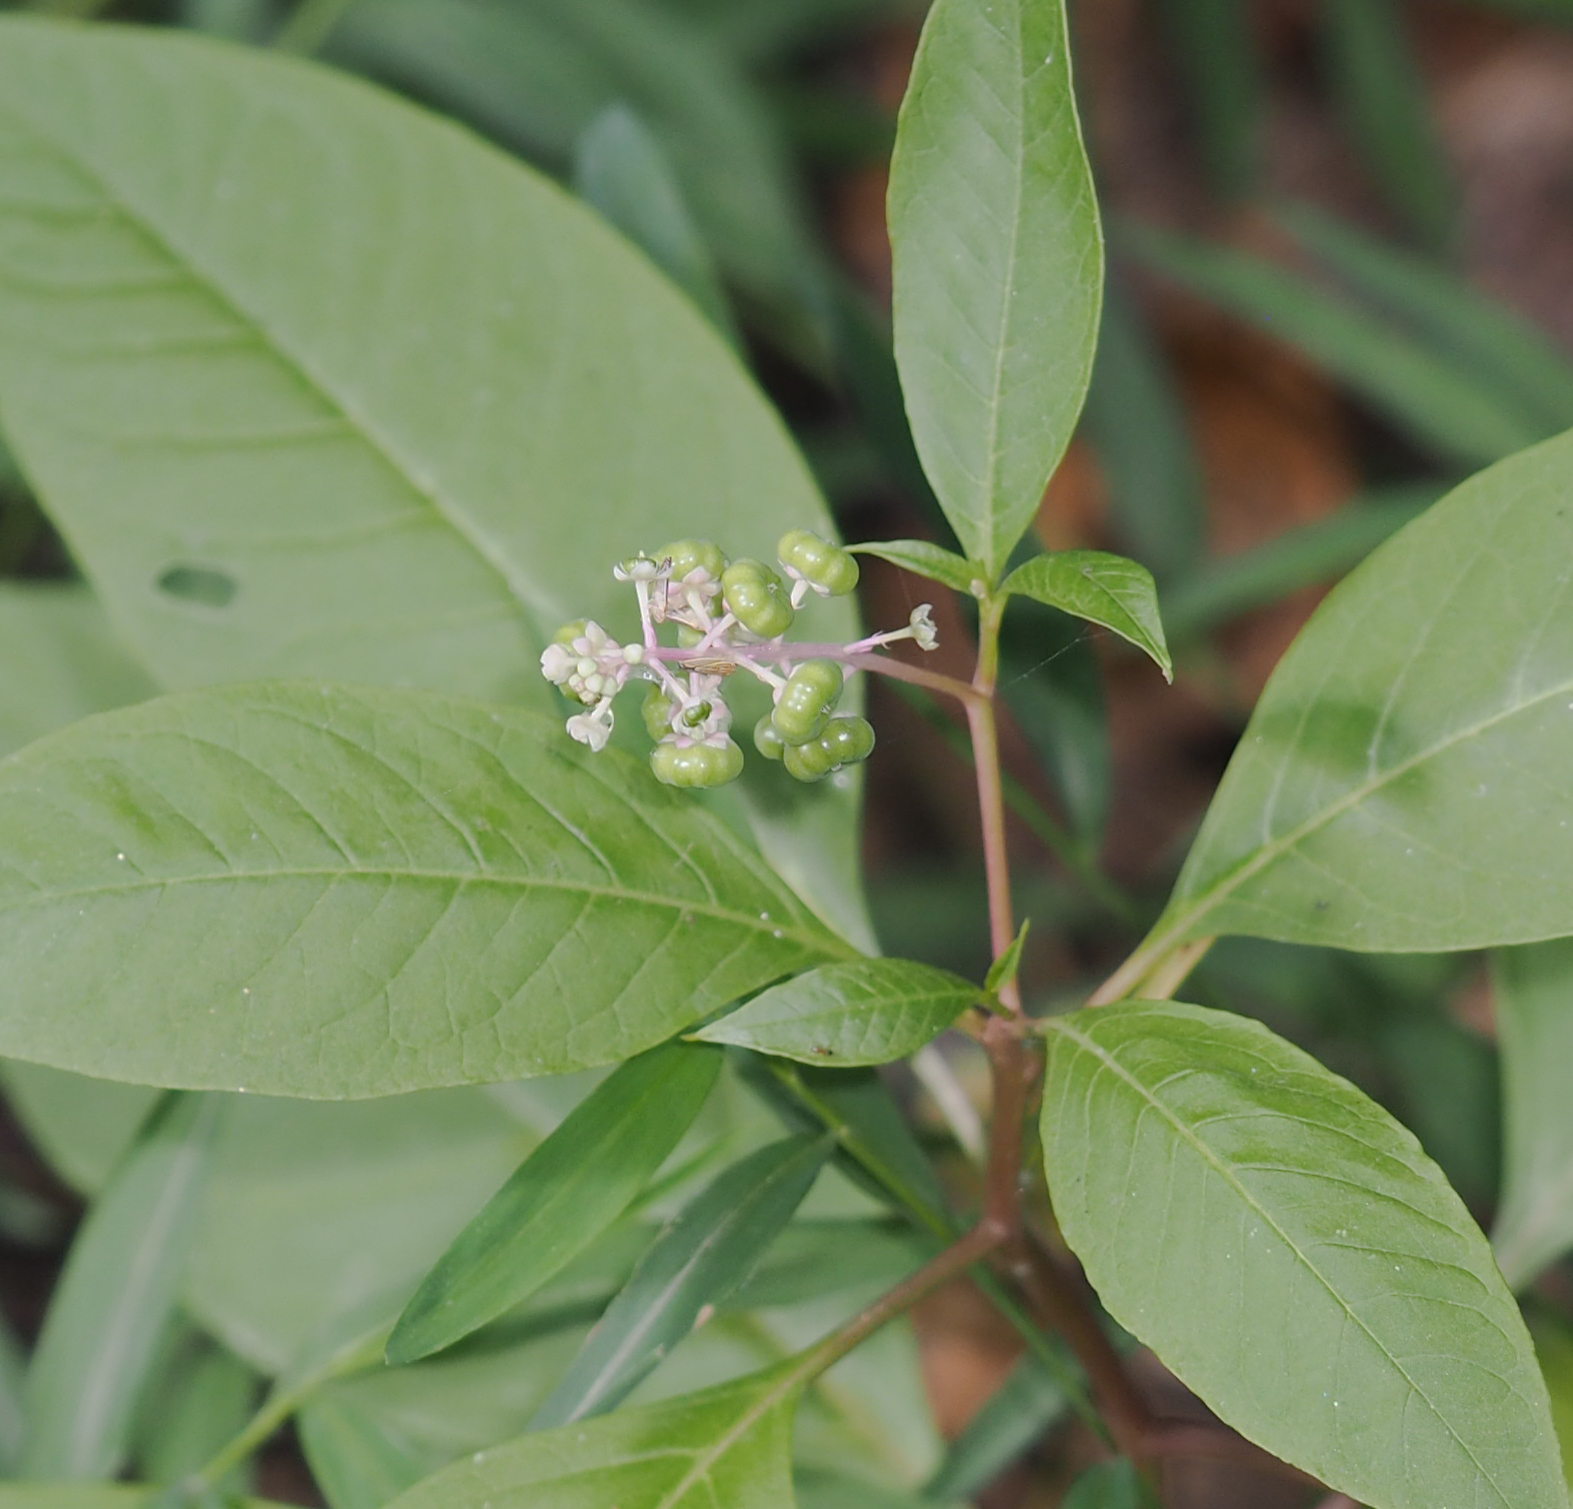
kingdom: Plantae
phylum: Tracheophyta
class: Magnoliopsida
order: Caryophyllales
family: Phytolaccaceae
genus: Phytolacca
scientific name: Phytolacca americana
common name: American pokeweed
